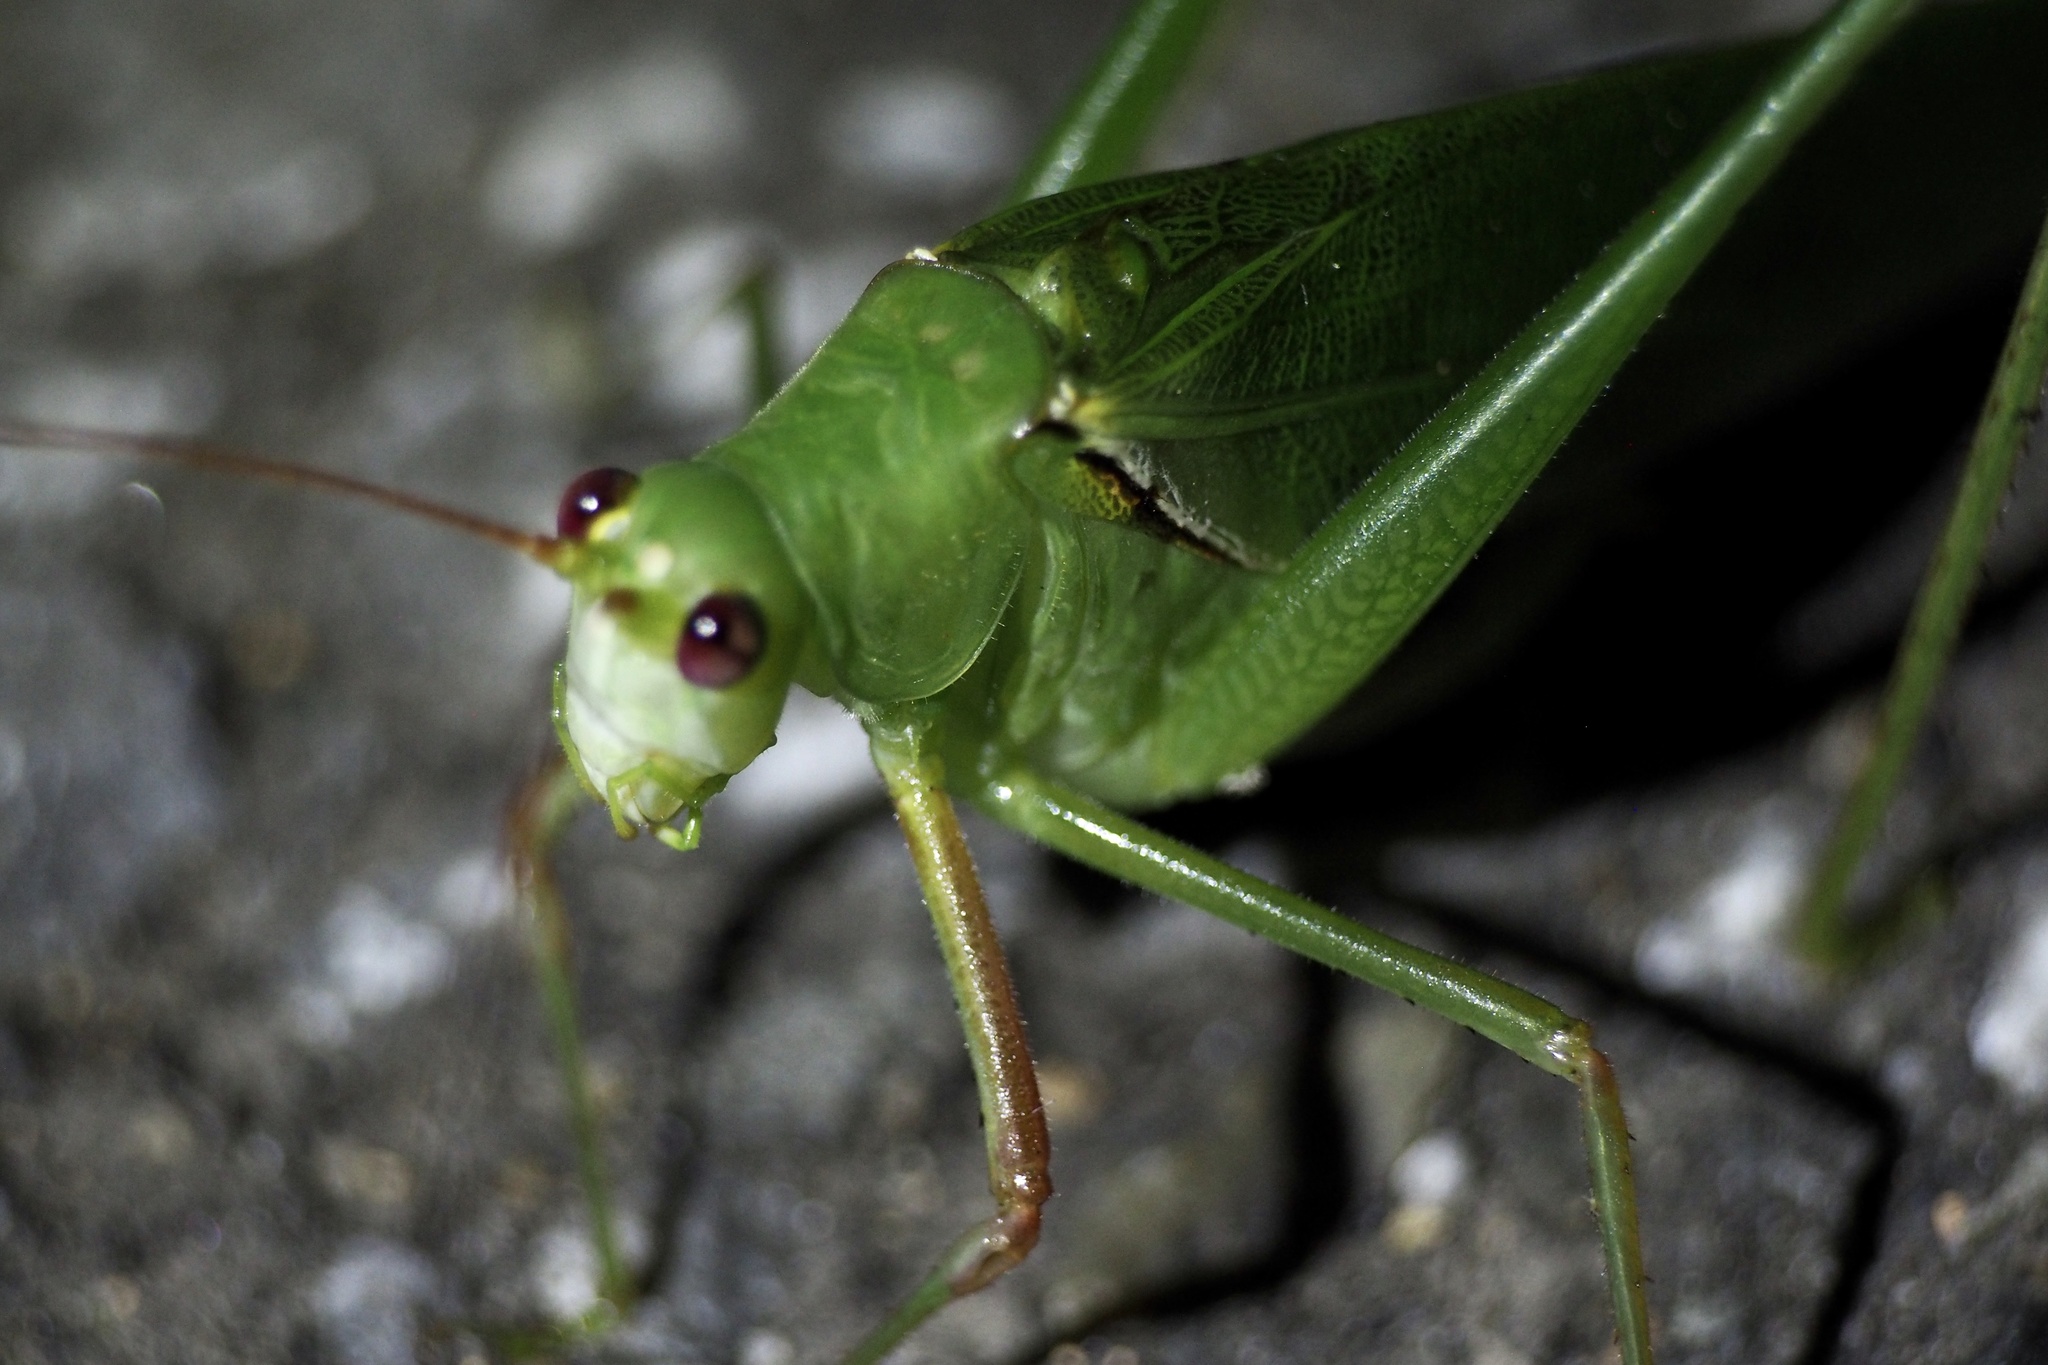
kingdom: Animalia
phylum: Arthropoda
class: Insecta
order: Orthoptera
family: Tettigoniidae
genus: Sinochlora
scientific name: Sinochlora longifissa
